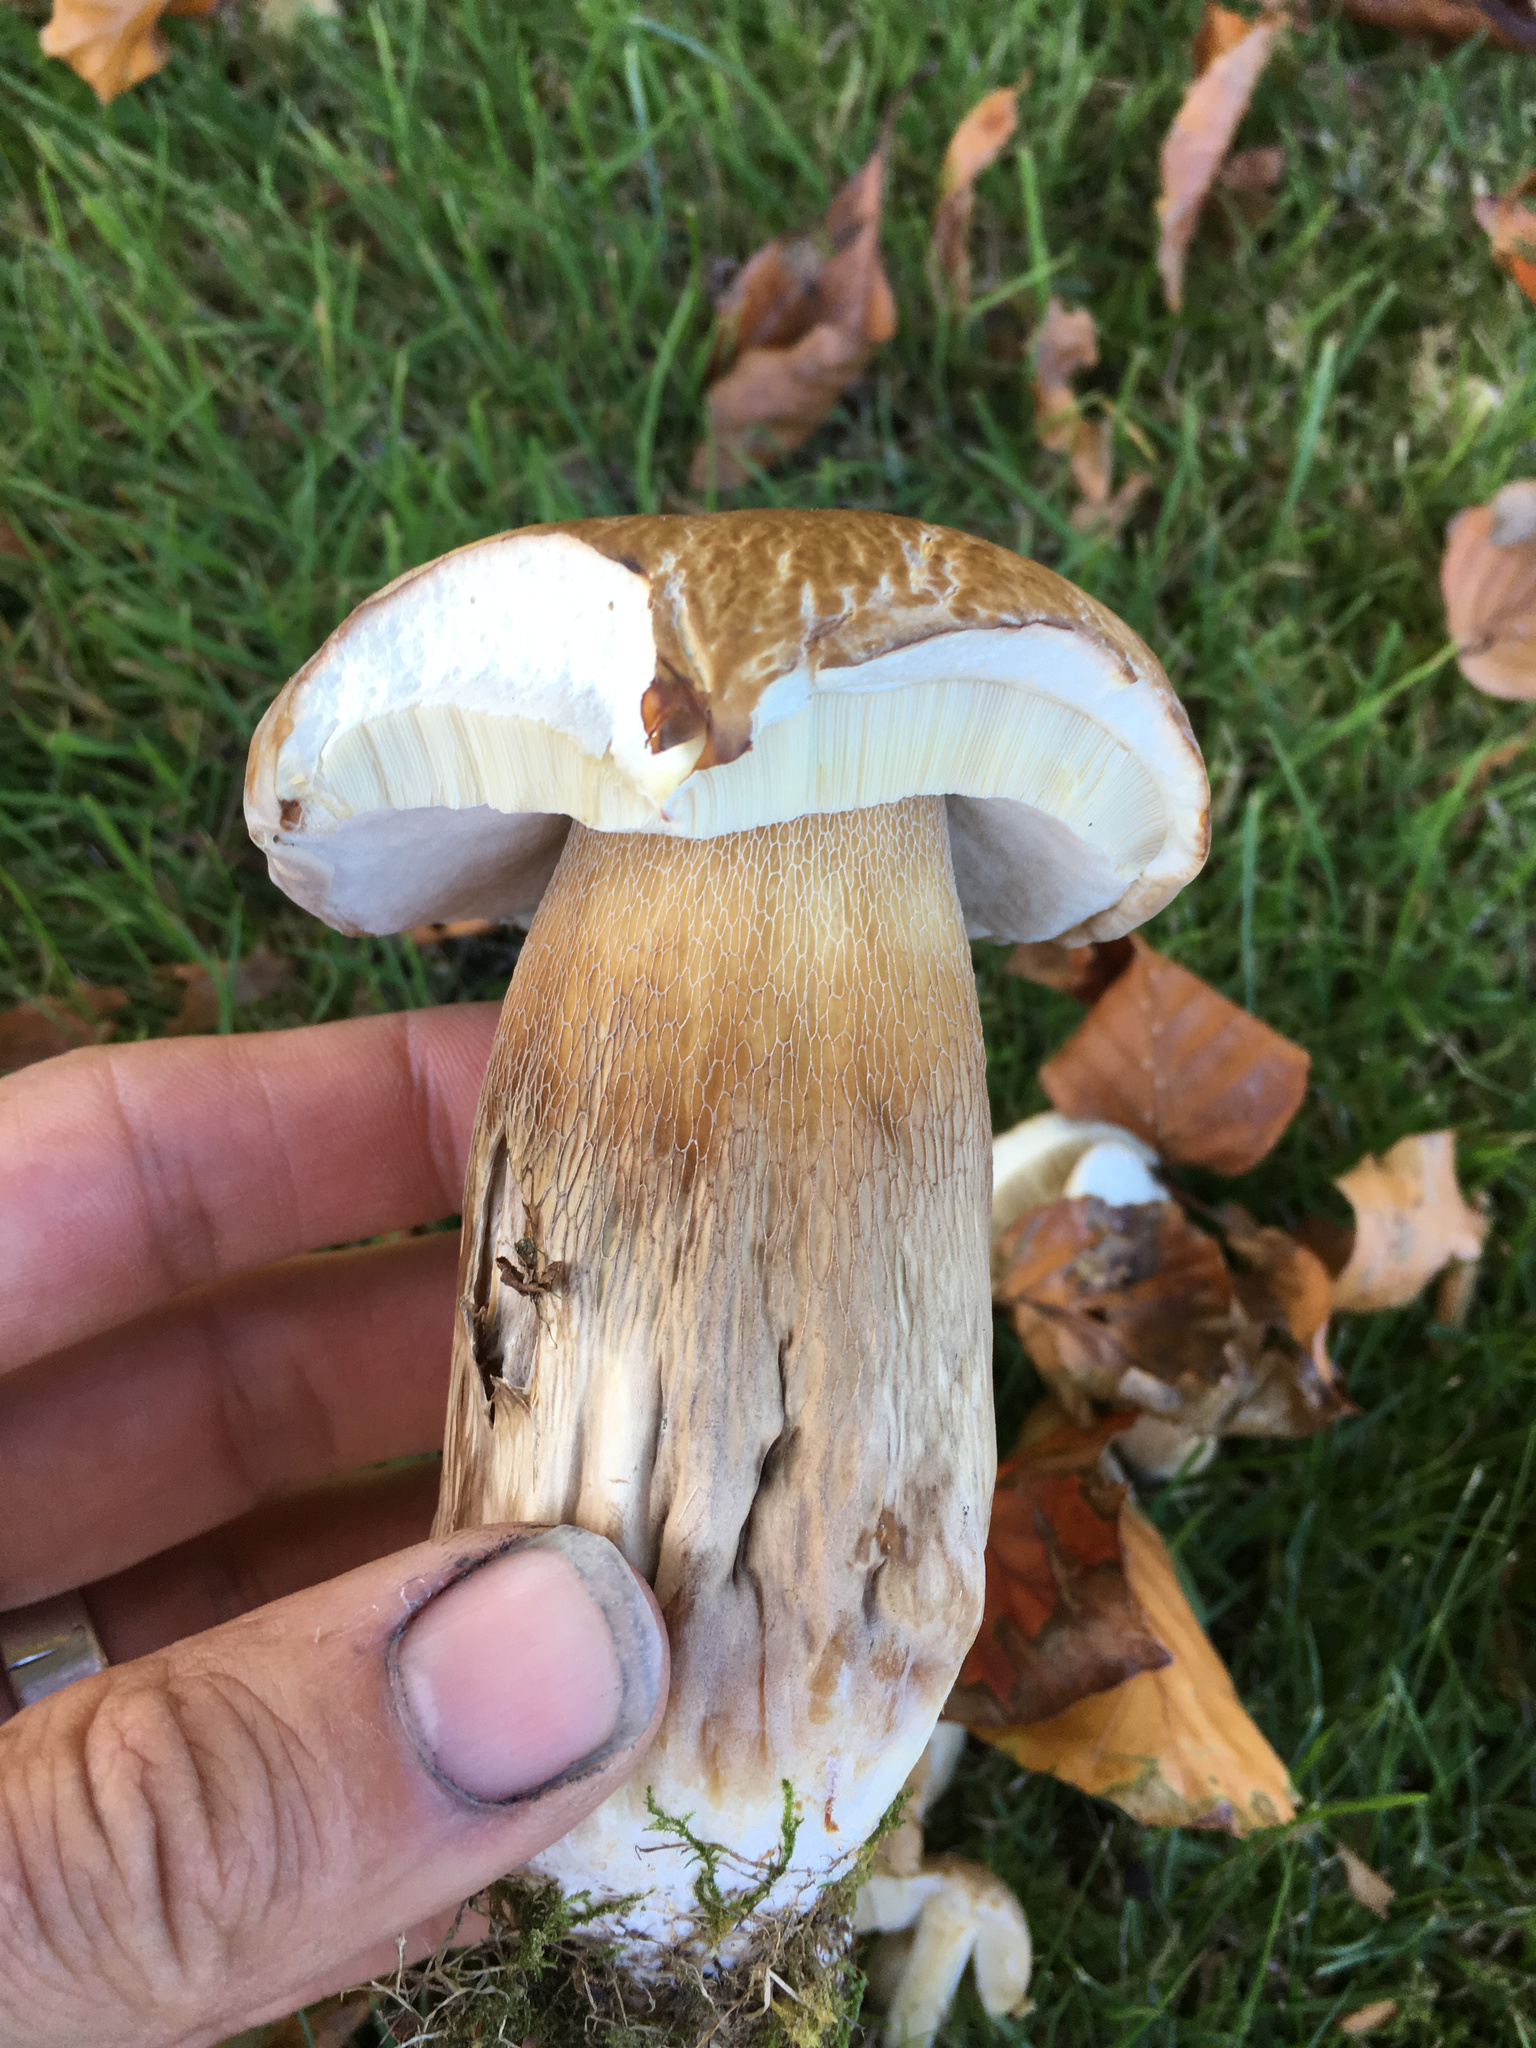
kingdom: Fungi
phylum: Basidiomycota
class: Agaricomycetes
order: Boletales
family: Boletaceae
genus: Boletus
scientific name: Boletus edulis
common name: Cep
